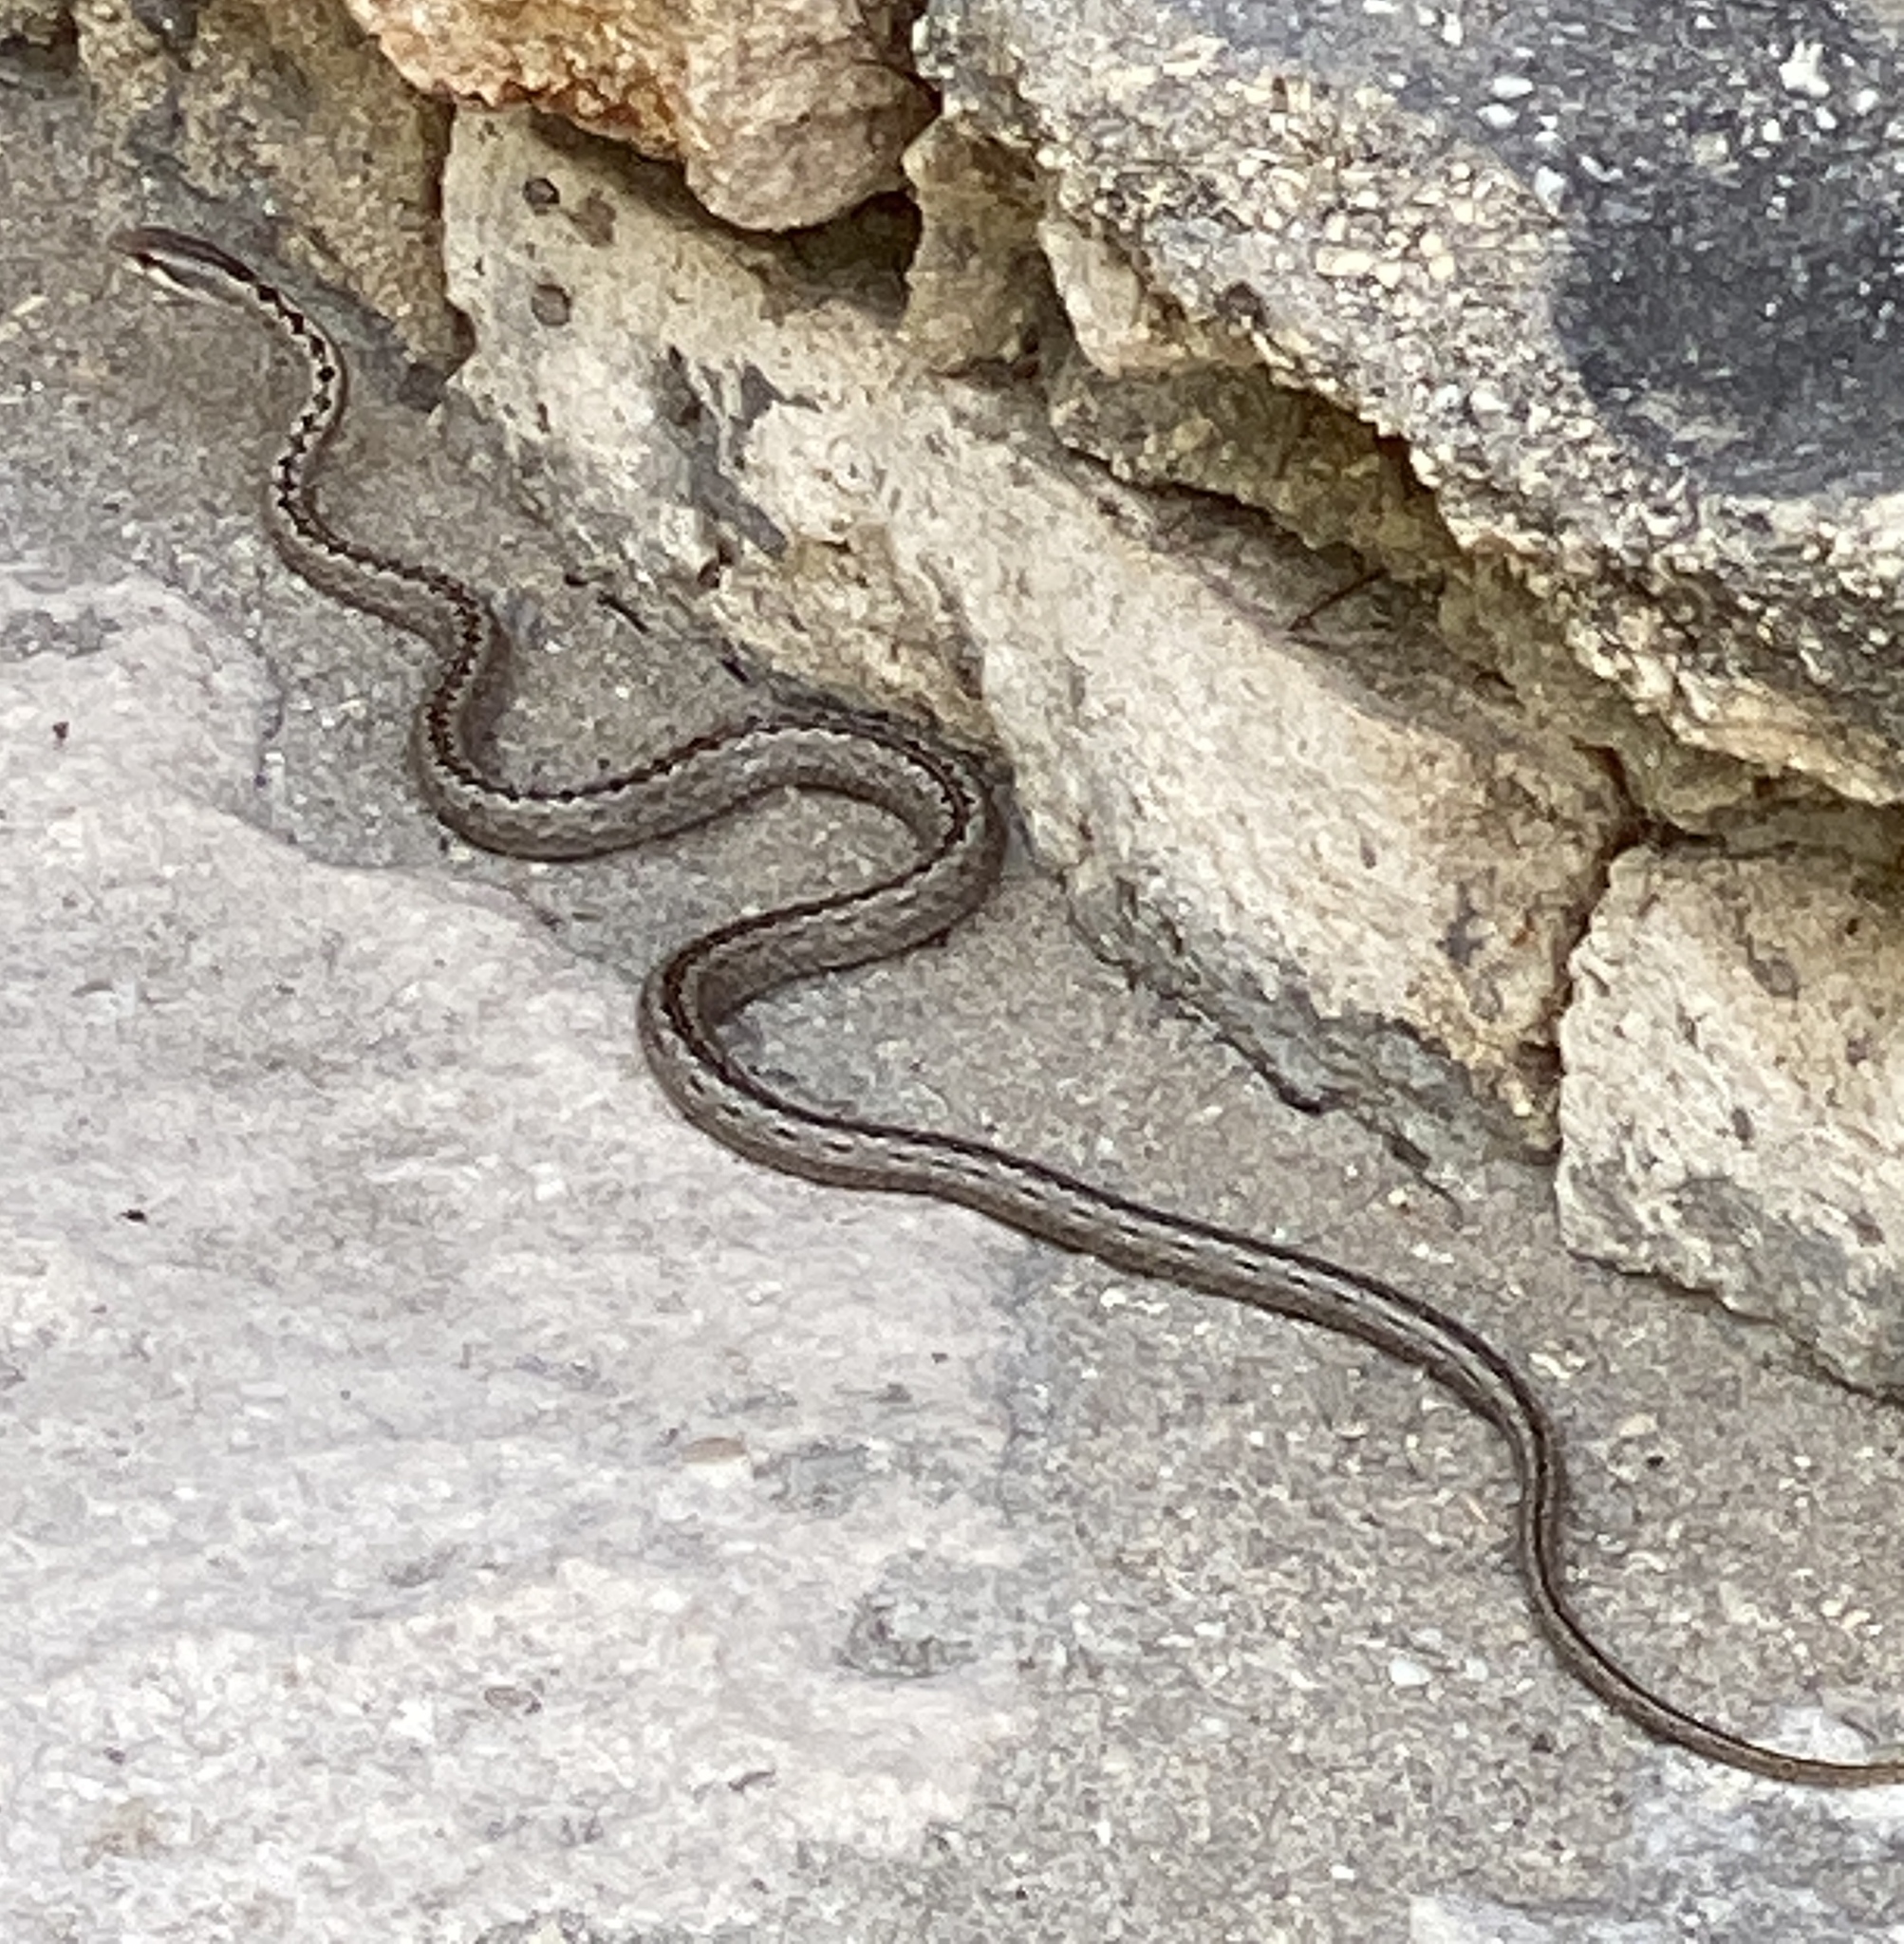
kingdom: Animalia
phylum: Chordata
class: Squamata
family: Psammophiidae
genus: Mimophis
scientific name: Mimophis mahfalensis
